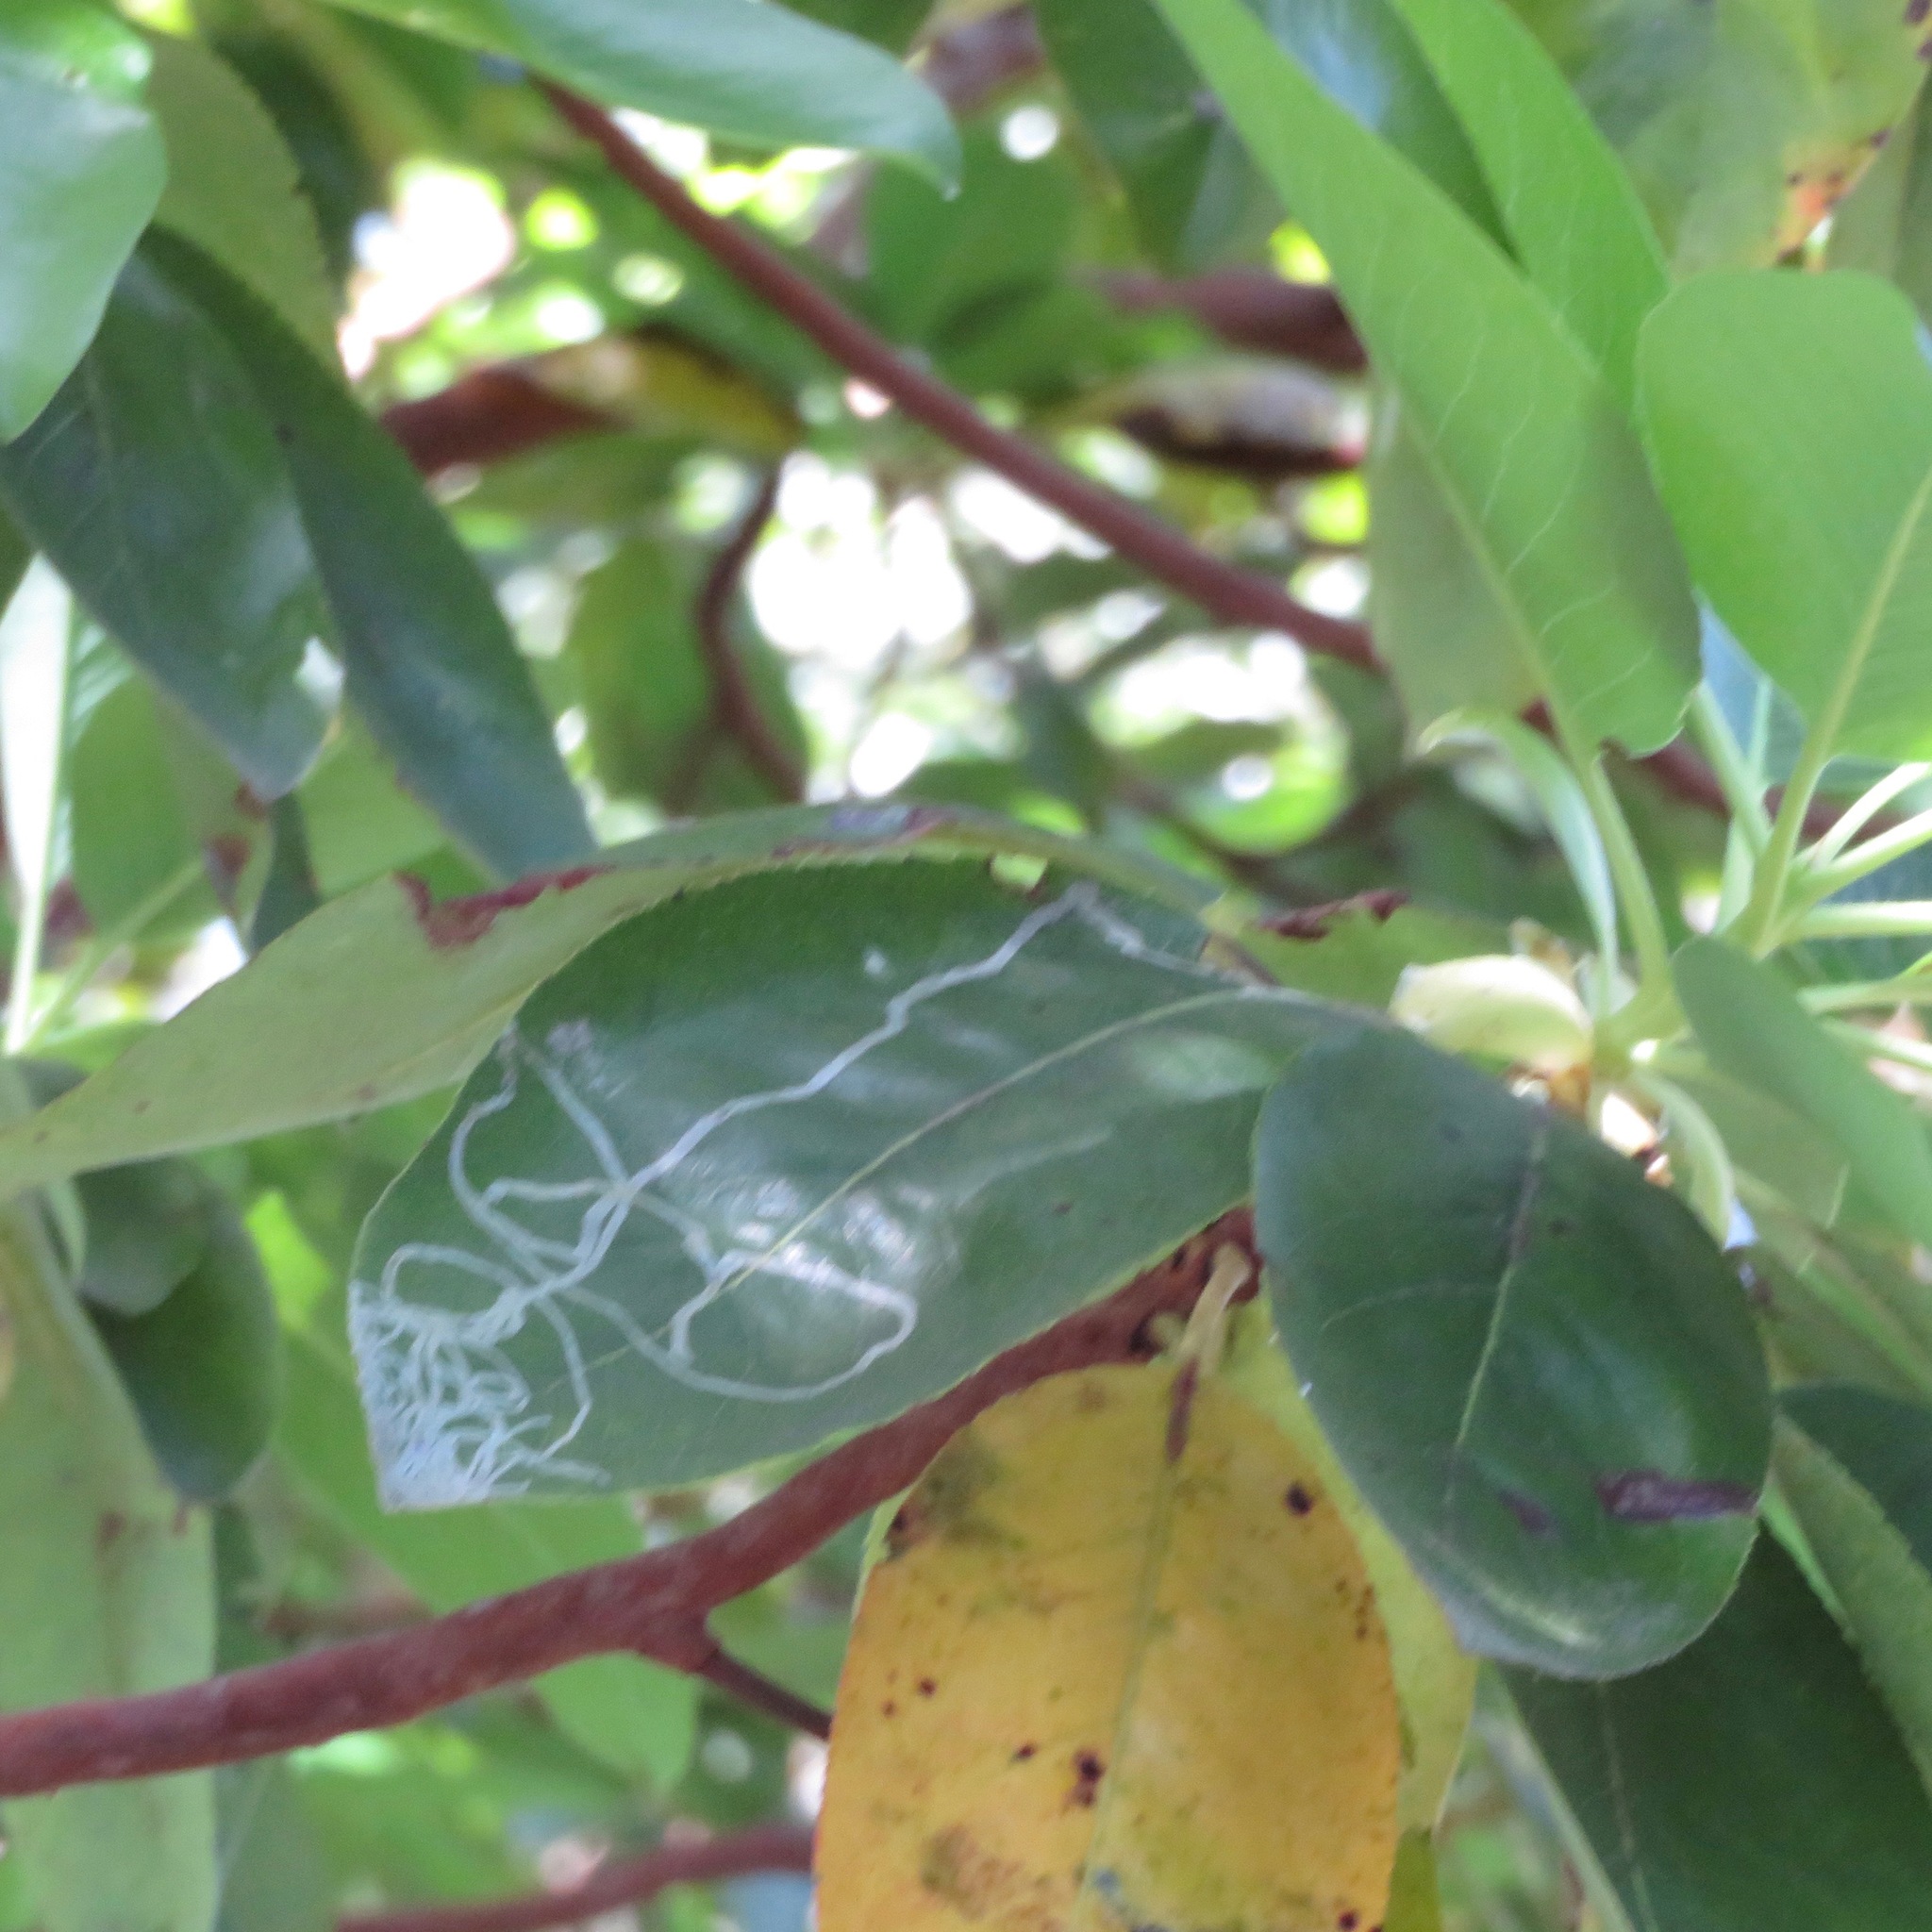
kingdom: Animalia
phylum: Arthropoda
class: Insecta
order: Lepidoptera
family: Gracillariidae
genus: Marmara
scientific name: Marmara arbutiella
